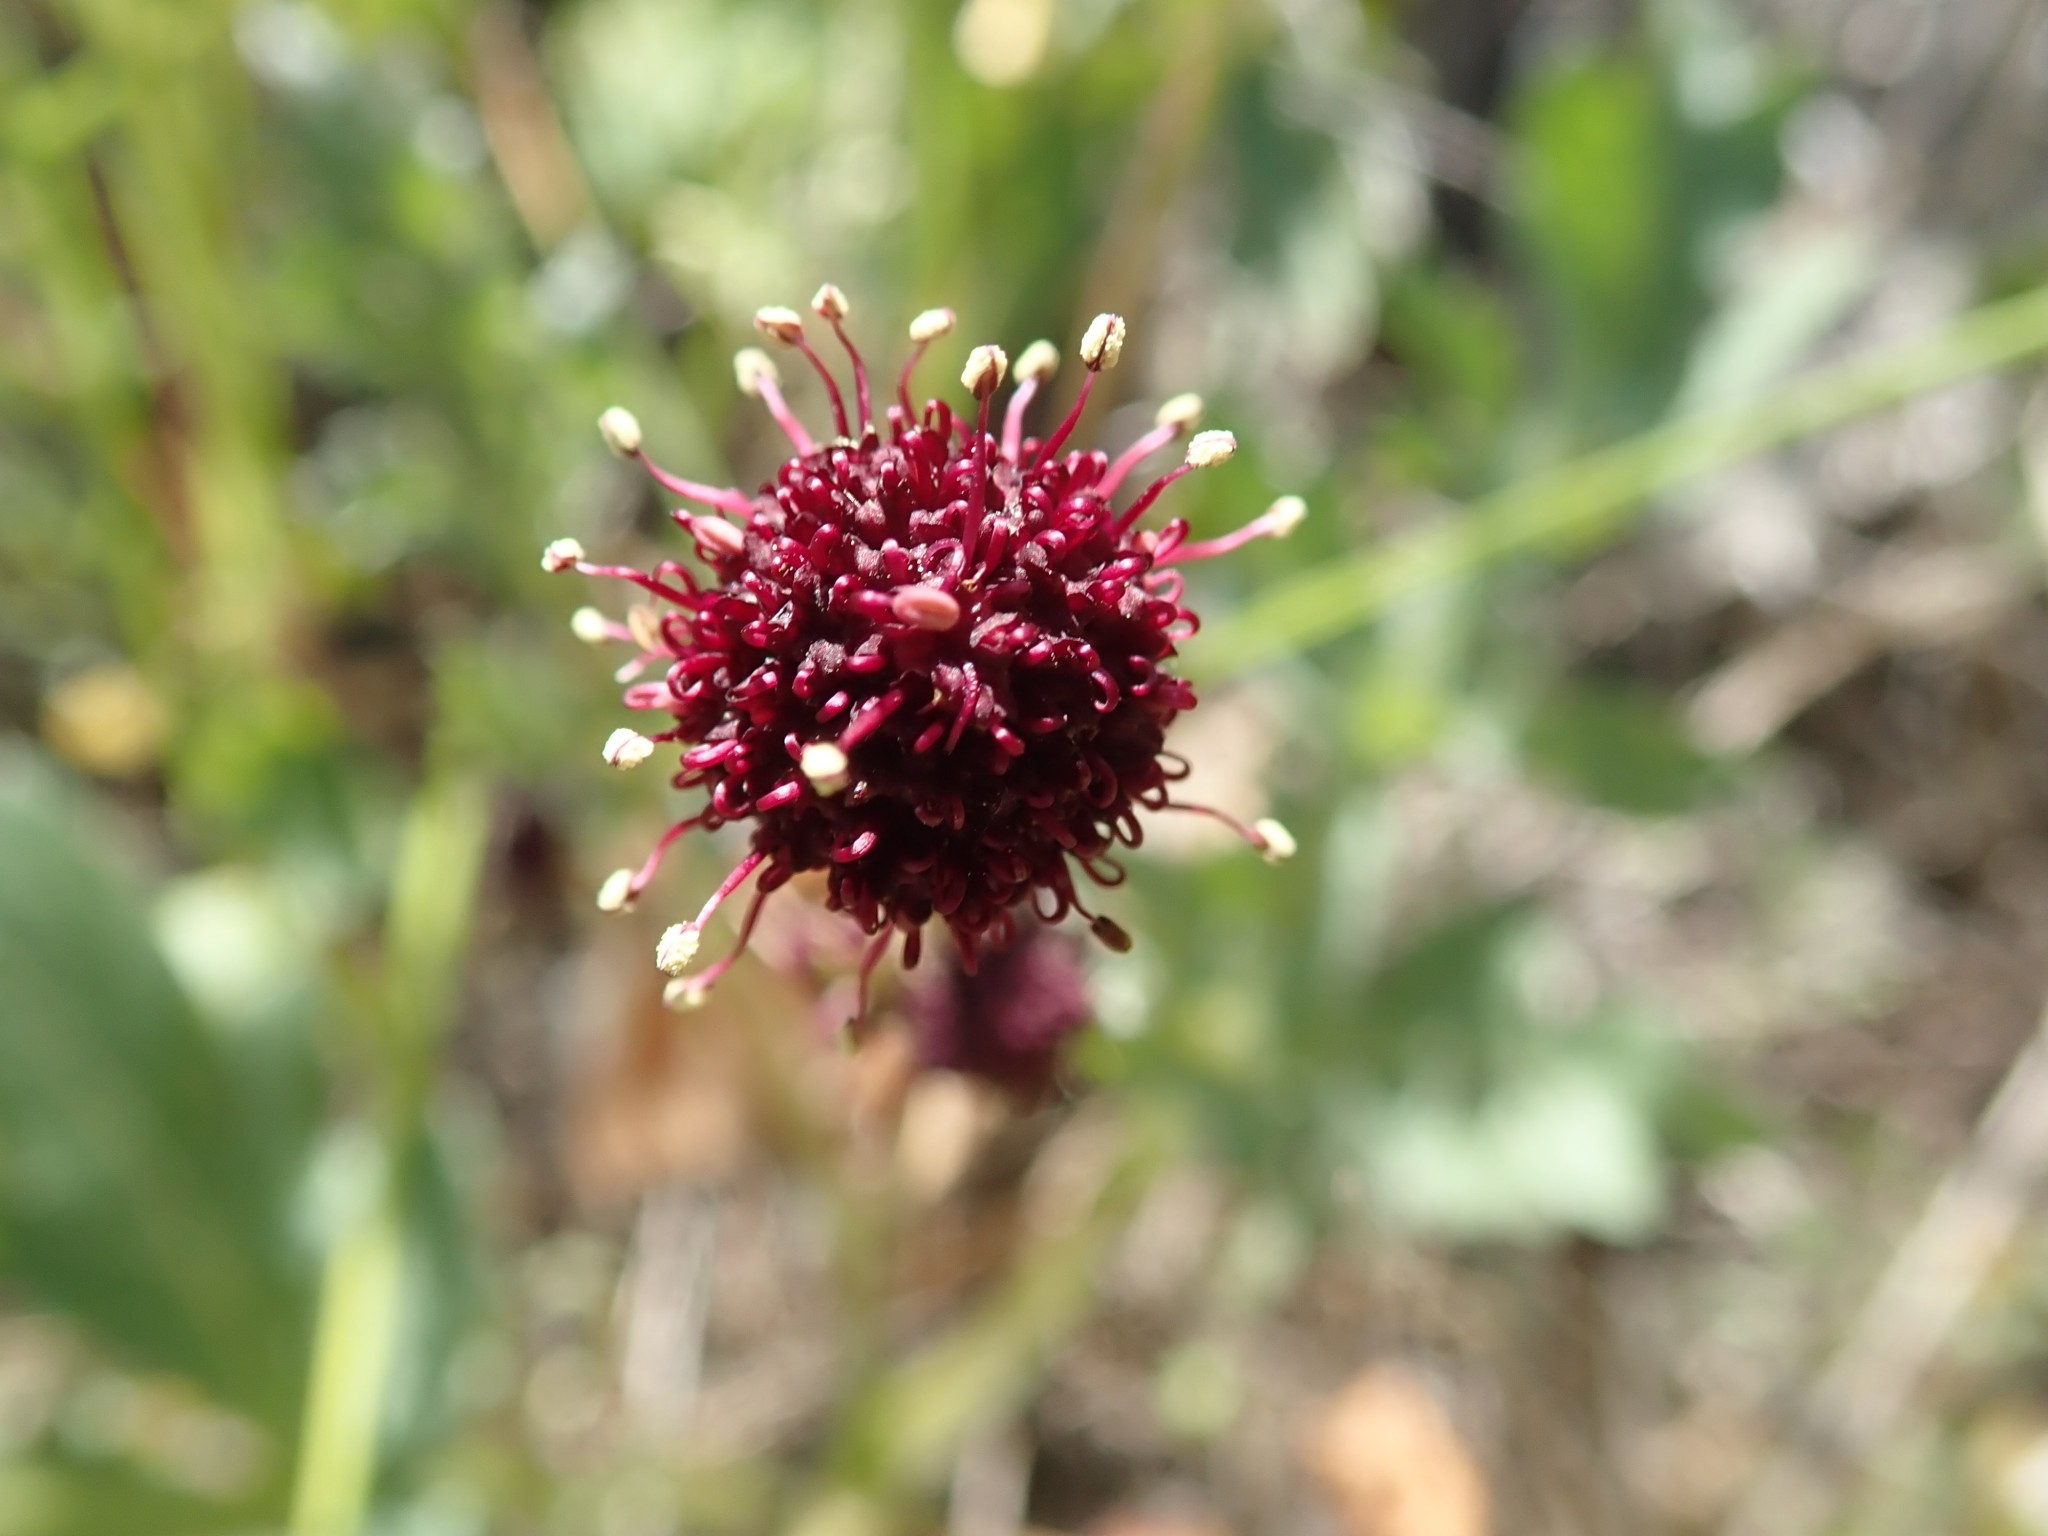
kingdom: Plantae
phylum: Tracheophyta
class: Magnoliopsida
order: Apiales
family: Apiaceae
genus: Sanicula
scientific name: Sanicula bipinnatifida
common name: Shoe-buttons
